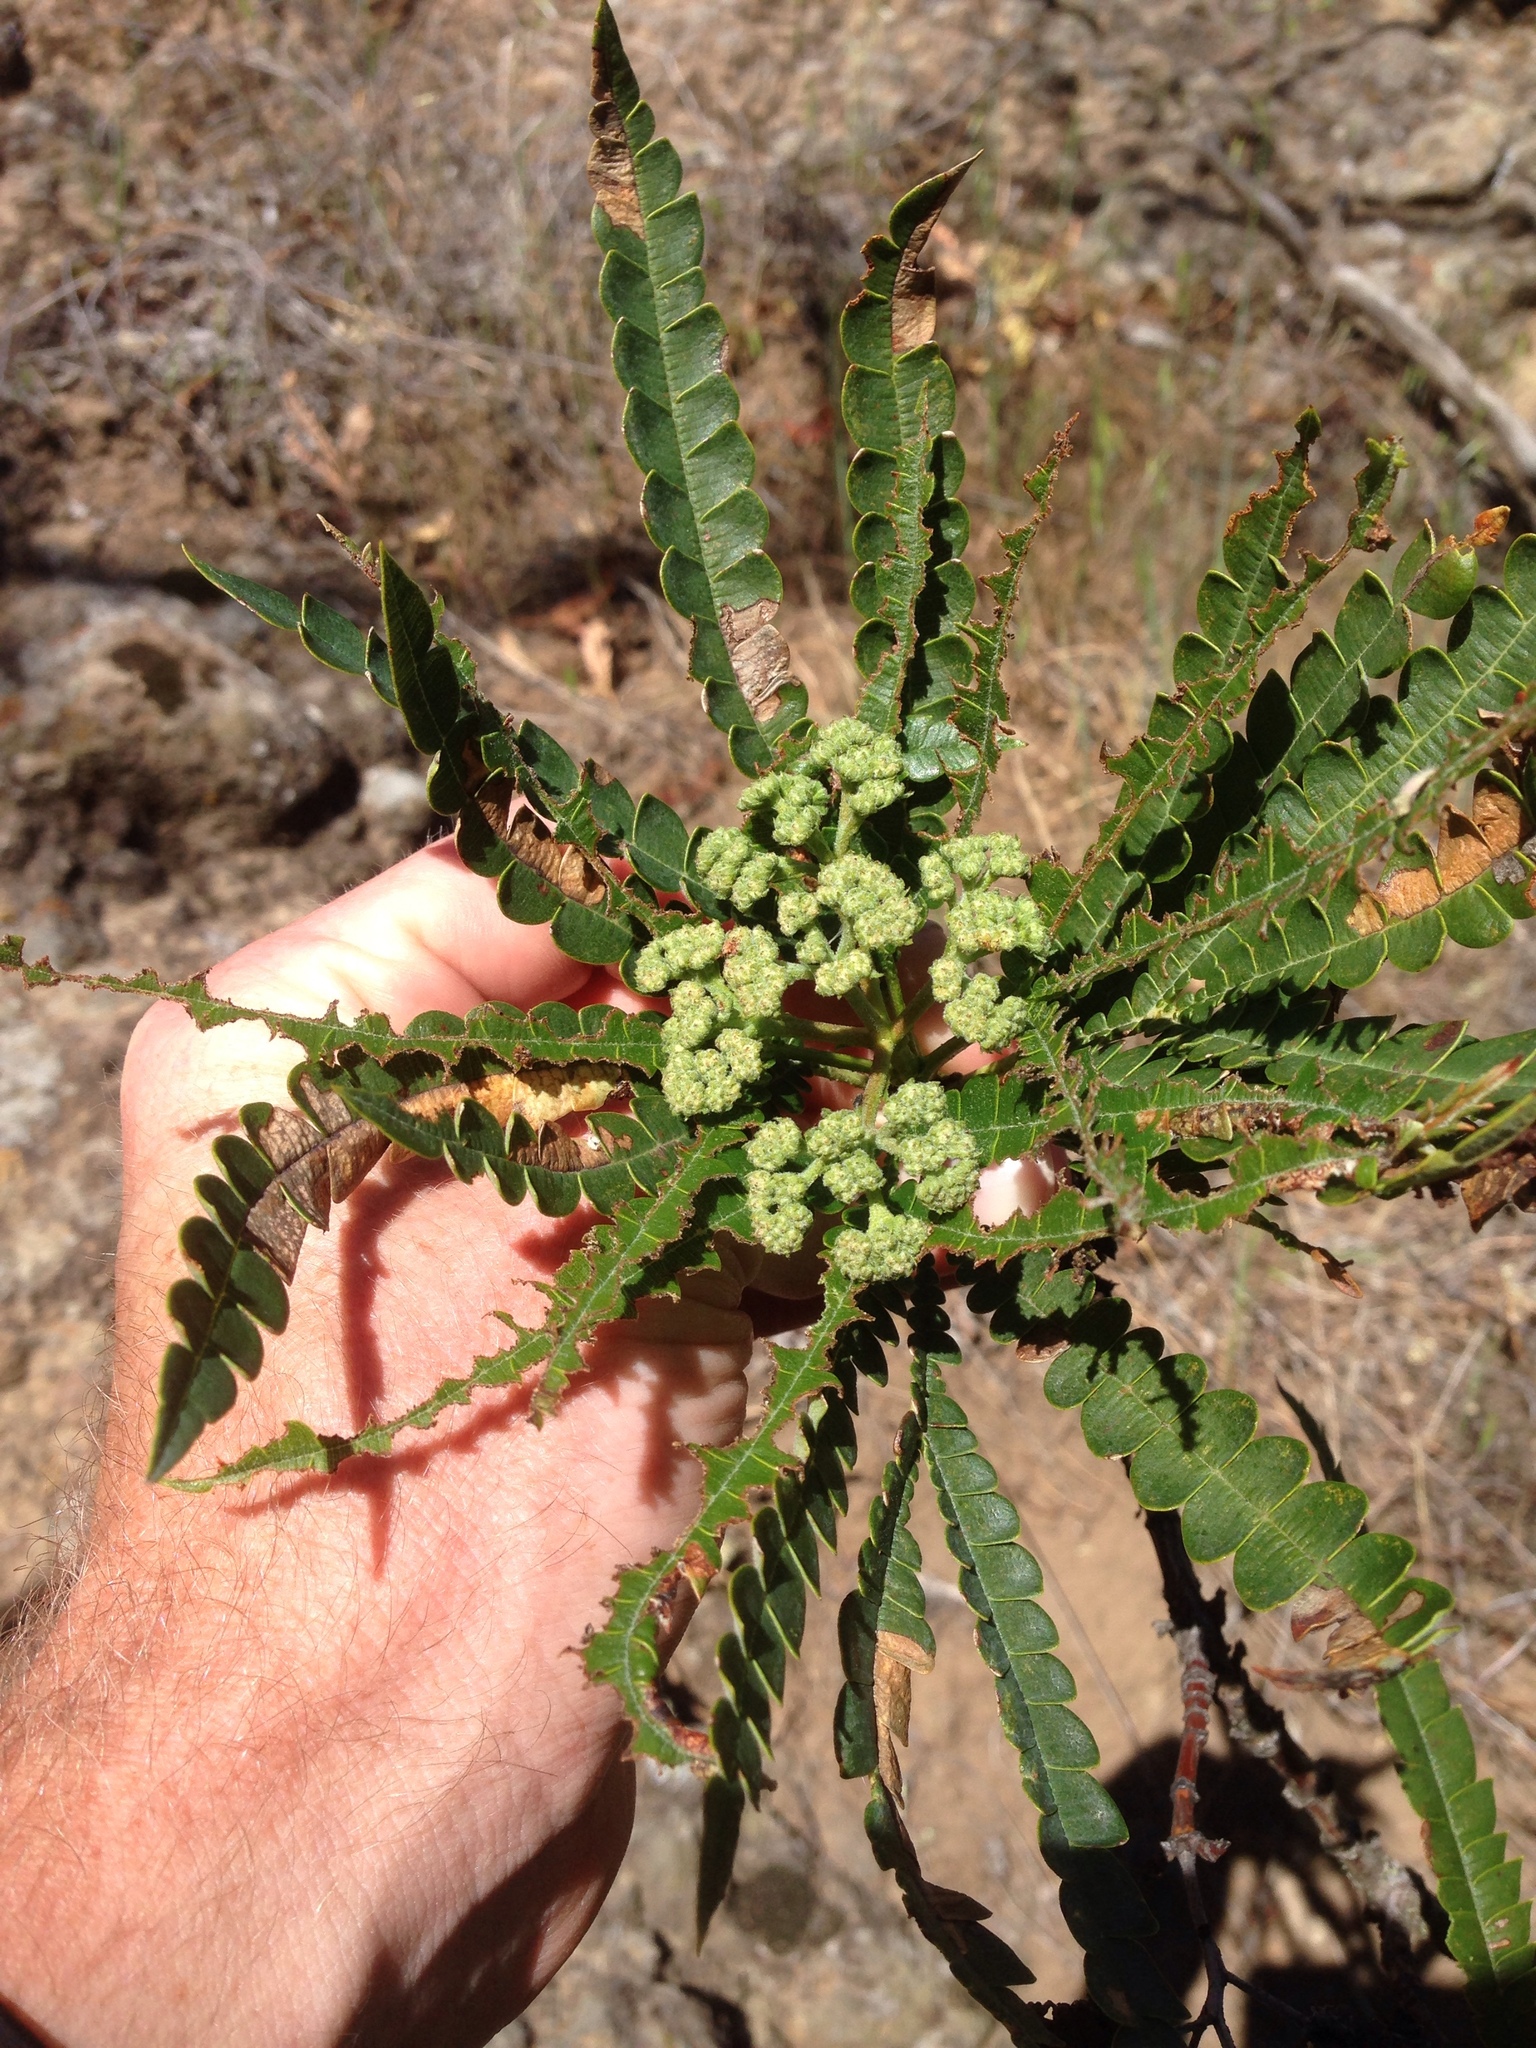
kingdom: Plantae
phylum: Tracheophyta
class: Magnoliopsida
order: Rosales
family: Rosaceae
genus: Lyonothamnus
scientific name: Lyonothamnus floribundus
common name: Catalina ironwood
